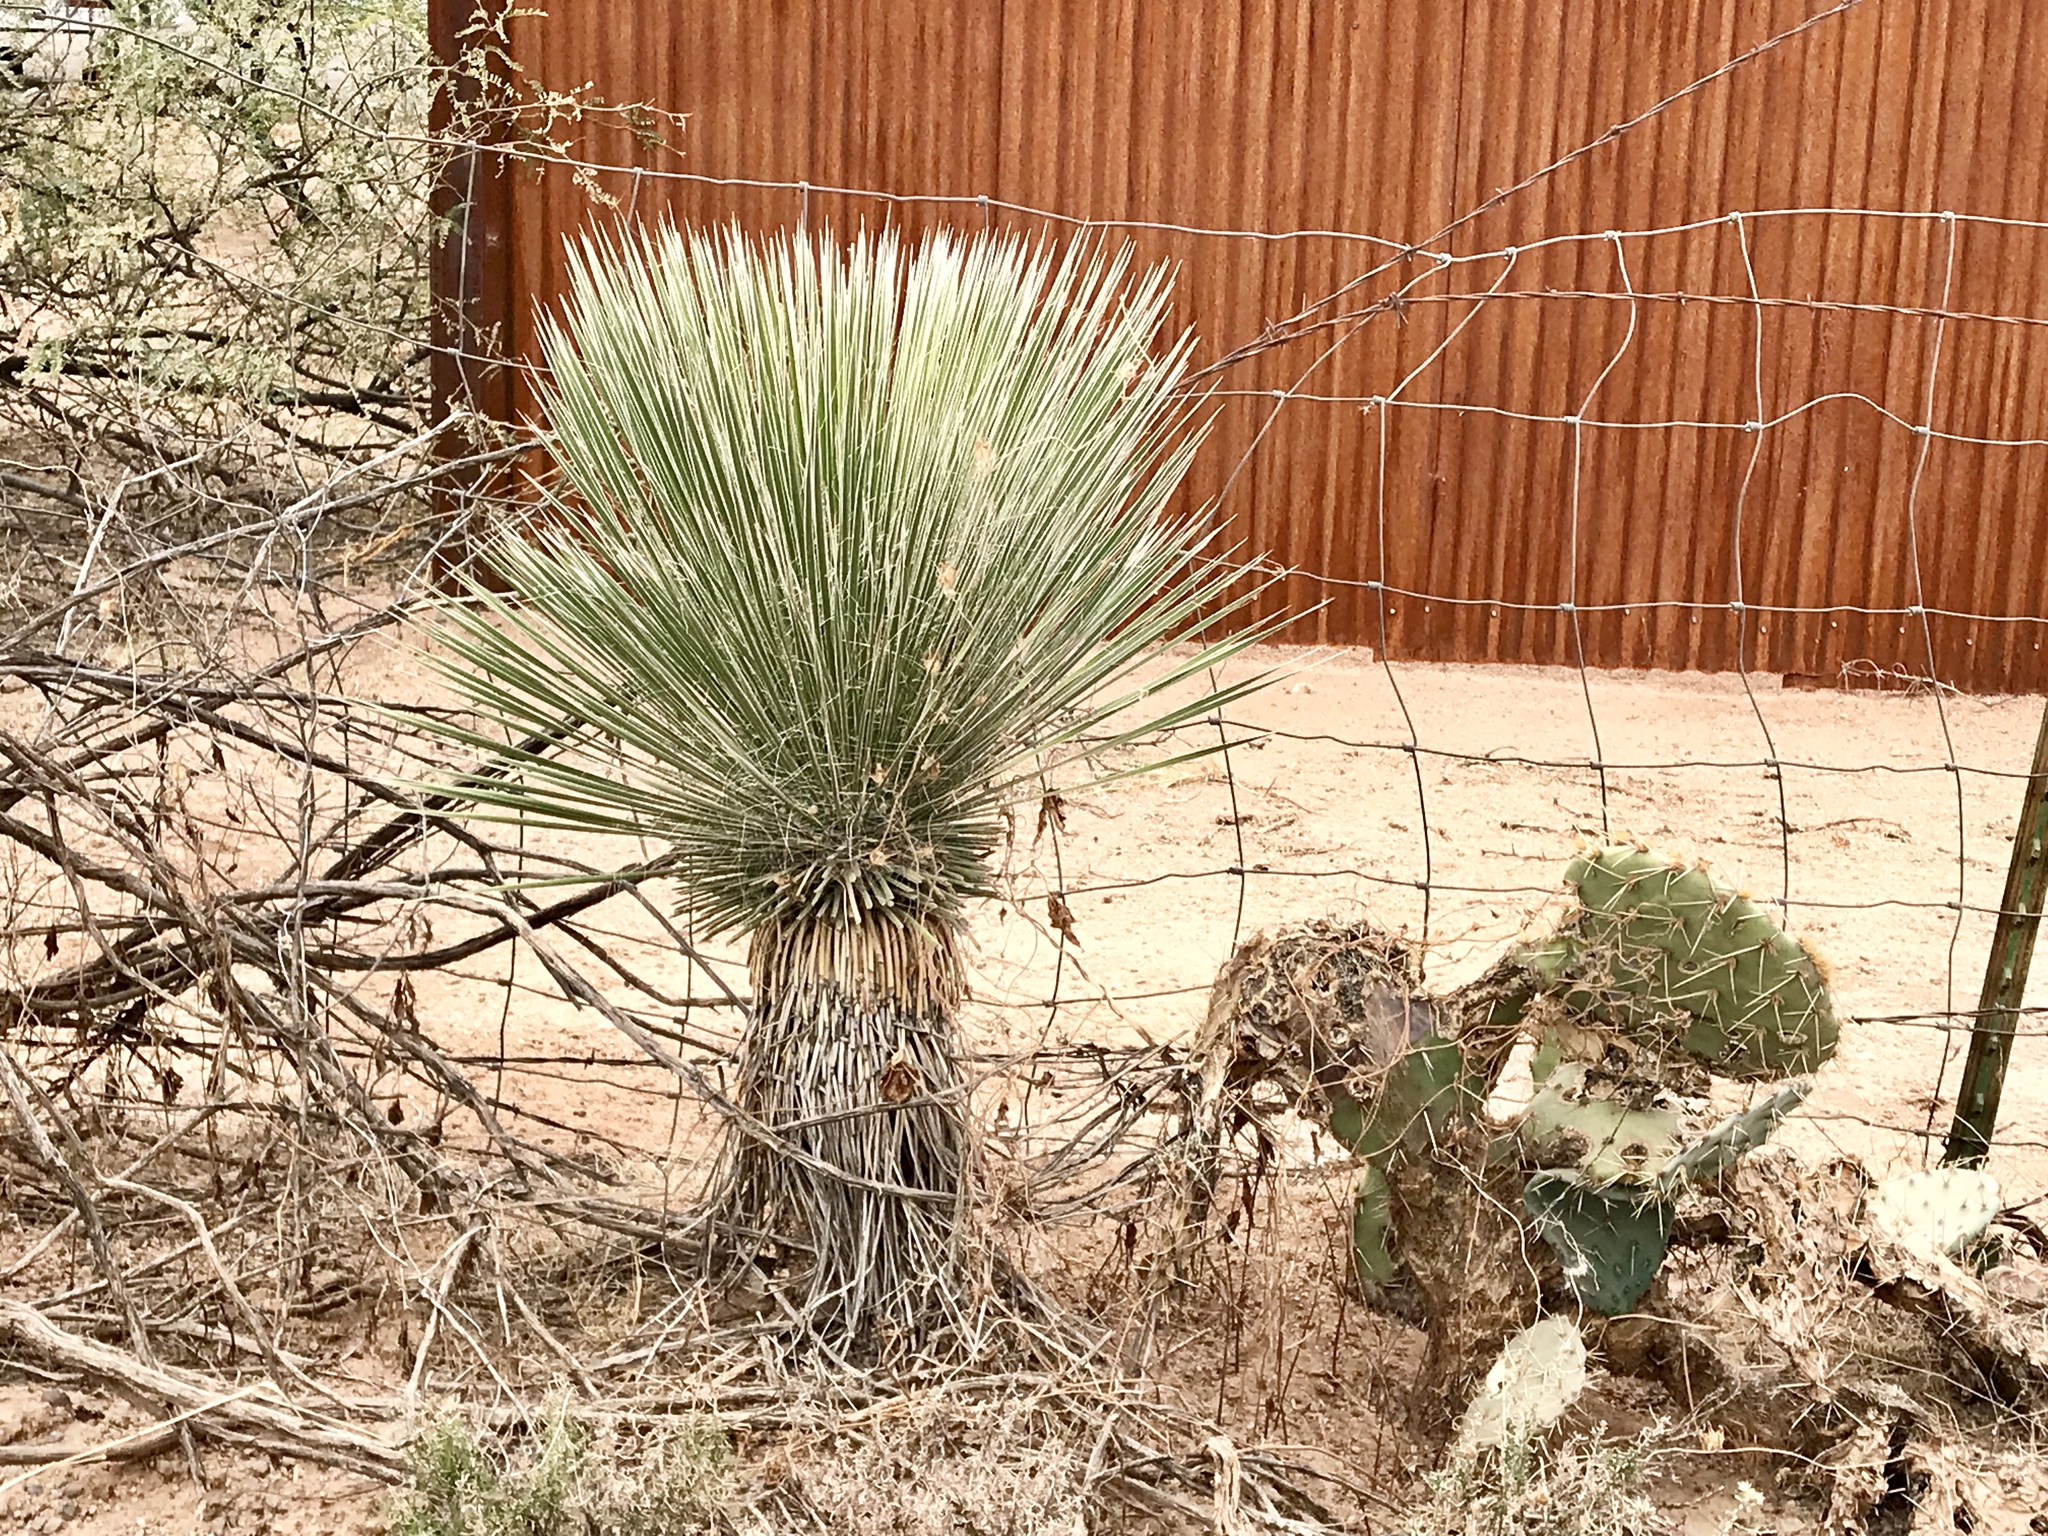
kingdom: Plantae
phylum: Tracheophyta
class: Liliopsida
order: Asparagales
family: Asparagaceae
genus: Yucca
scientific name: Yucca elata
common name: Palmella
